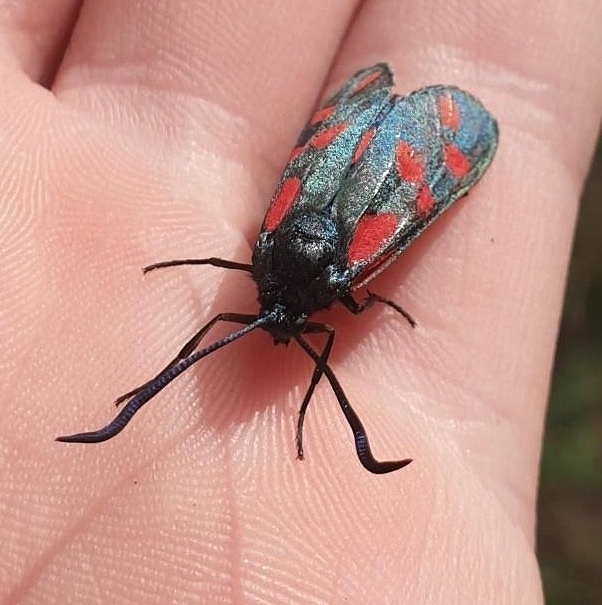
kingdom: Animalia
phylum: Arthropoda
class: Insecta
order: Lepidoptera
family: Zygaenidae
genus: Zygaena
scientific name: Zygaena filipendulae
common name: Six-spot burnet
